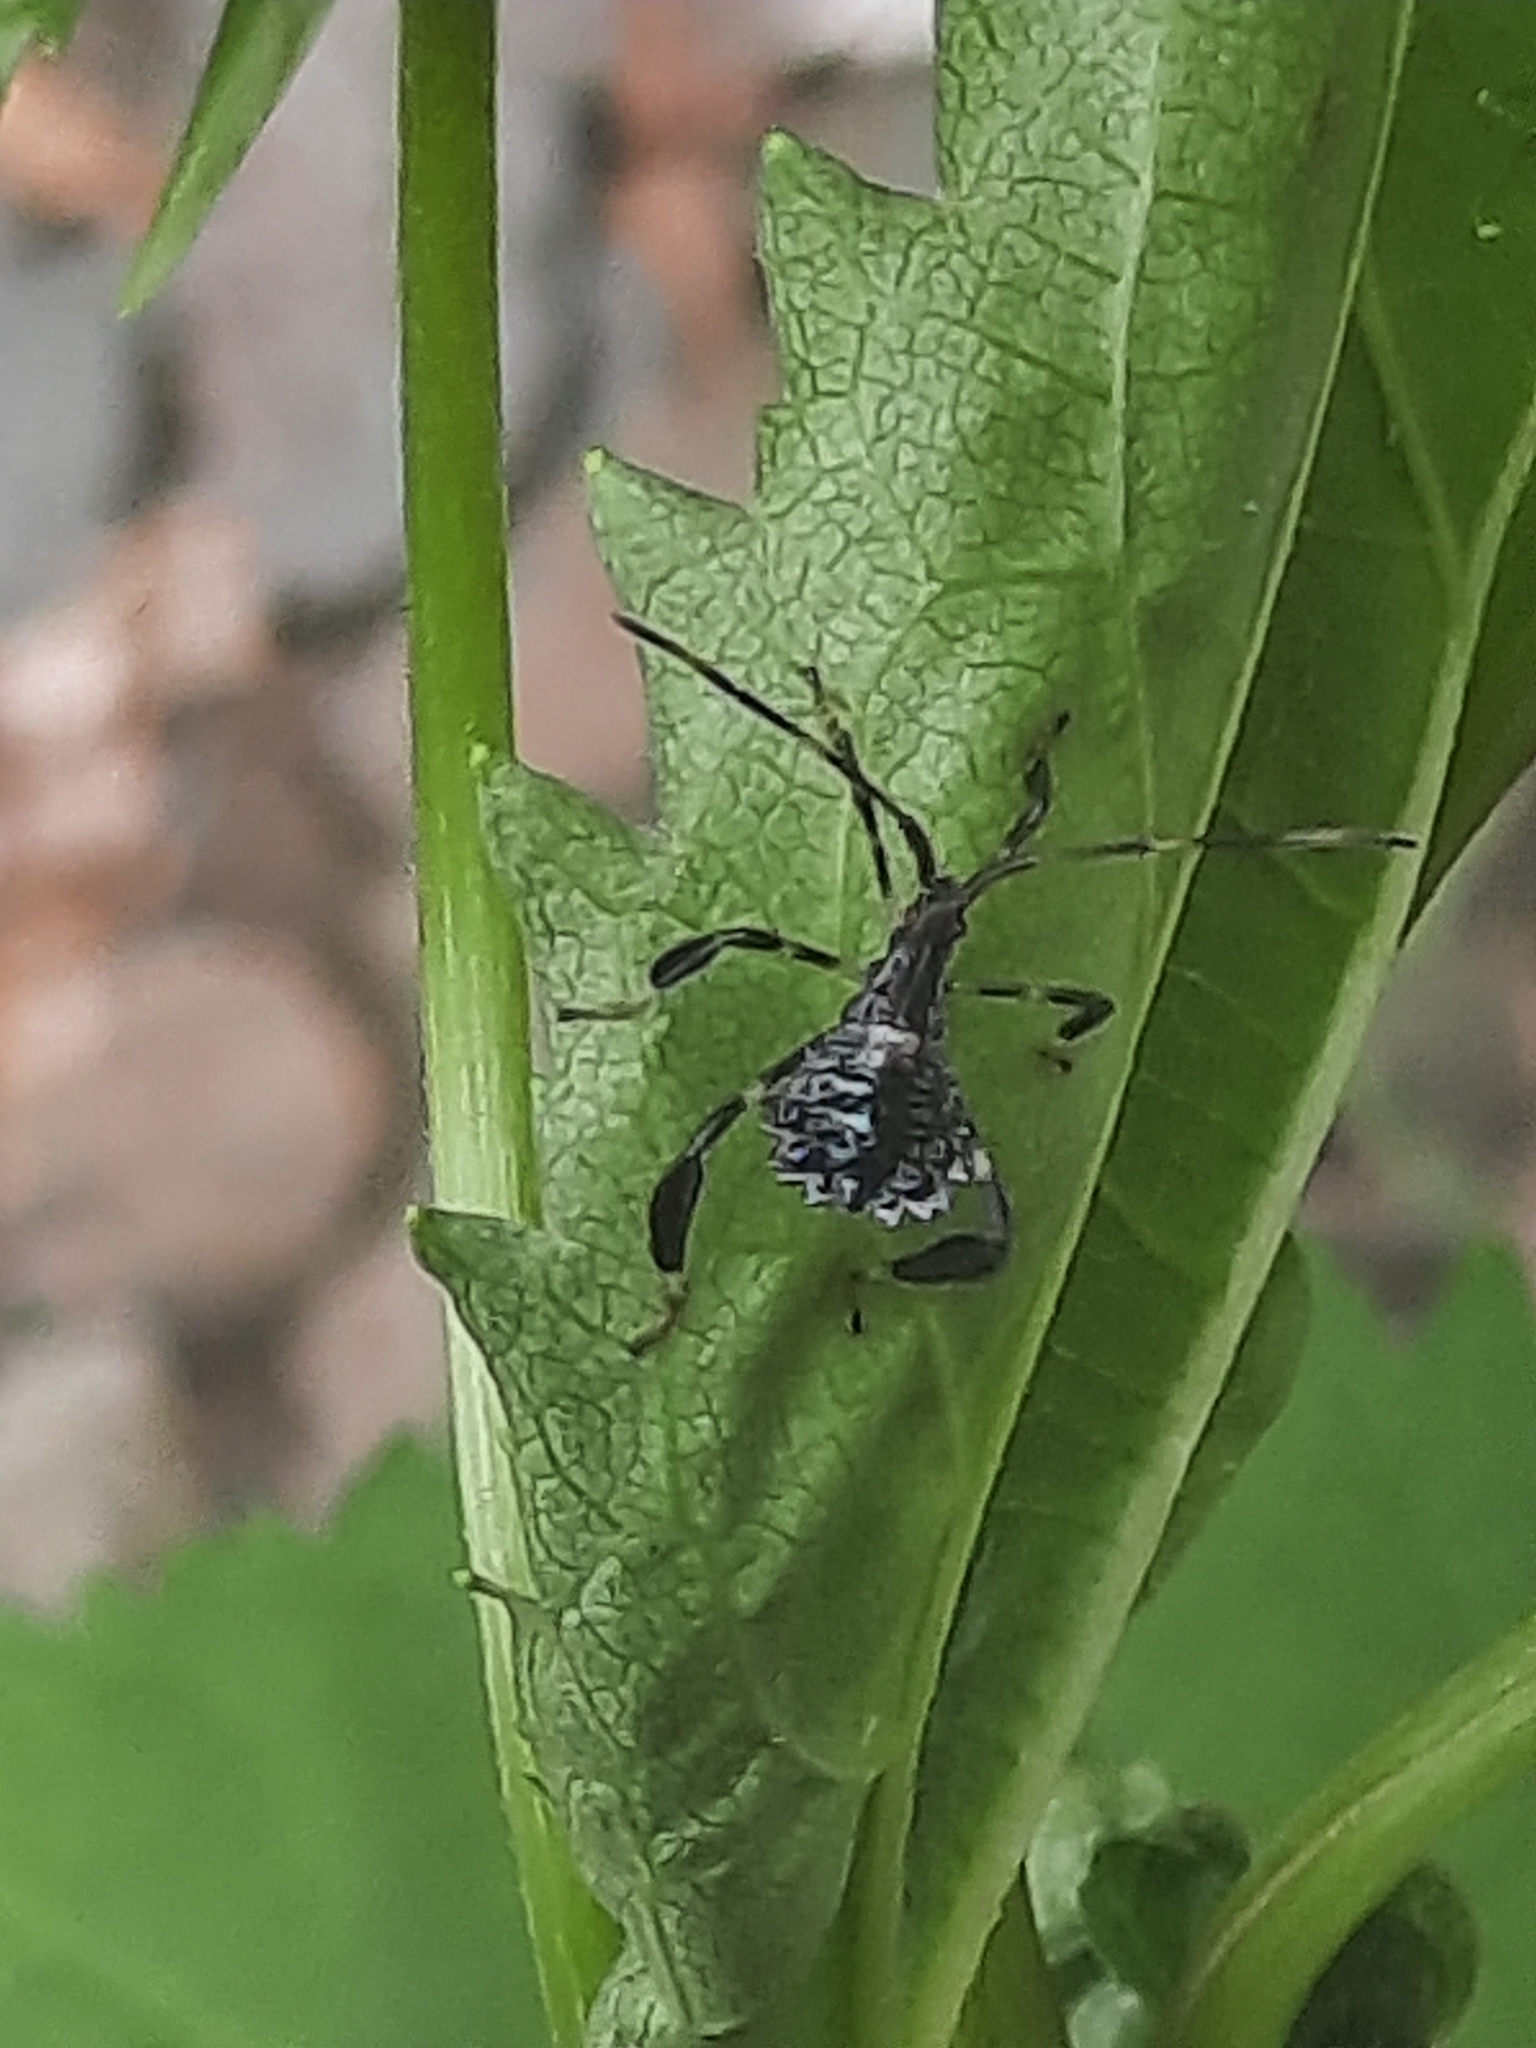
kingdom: Animalia
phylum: Arthropoda
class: Insecta
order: Hemiptera
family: Coreidae
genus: Acanthocephala
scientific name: Acanthocephala terminalis
